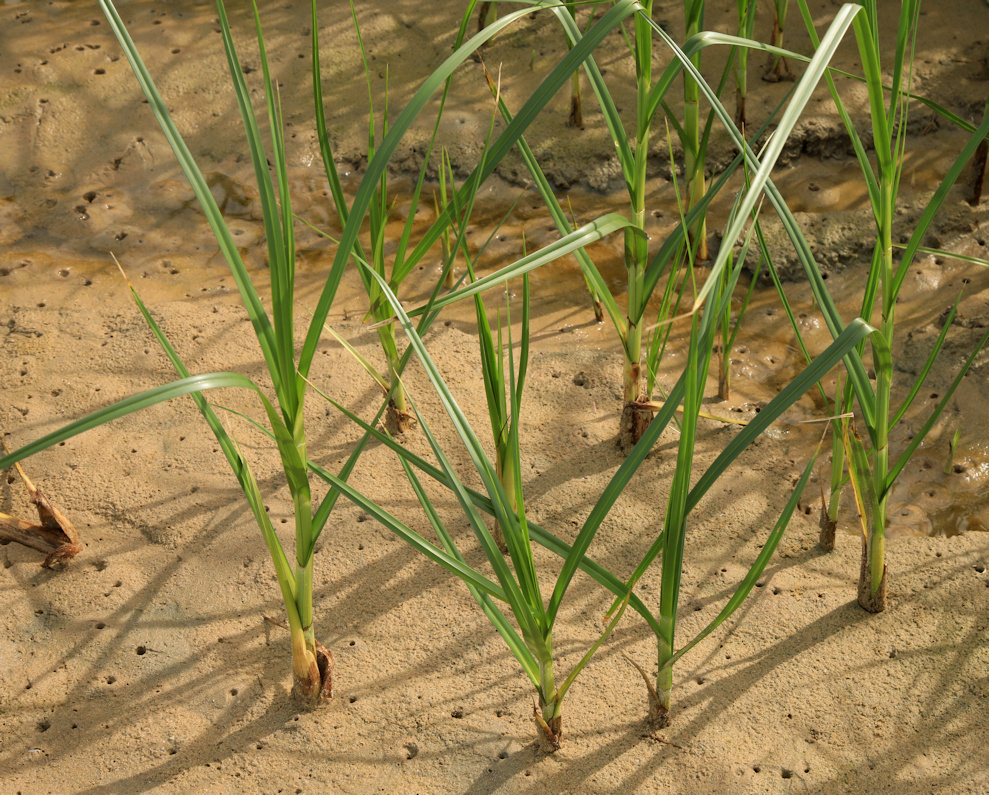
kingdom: Plantae
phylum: Tracheophyta
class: Liliopsida
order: Poales
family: Cyperaceae
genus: Bolboschoenus
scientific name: Bolboschoenus maritimus
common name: Sea club-rush
